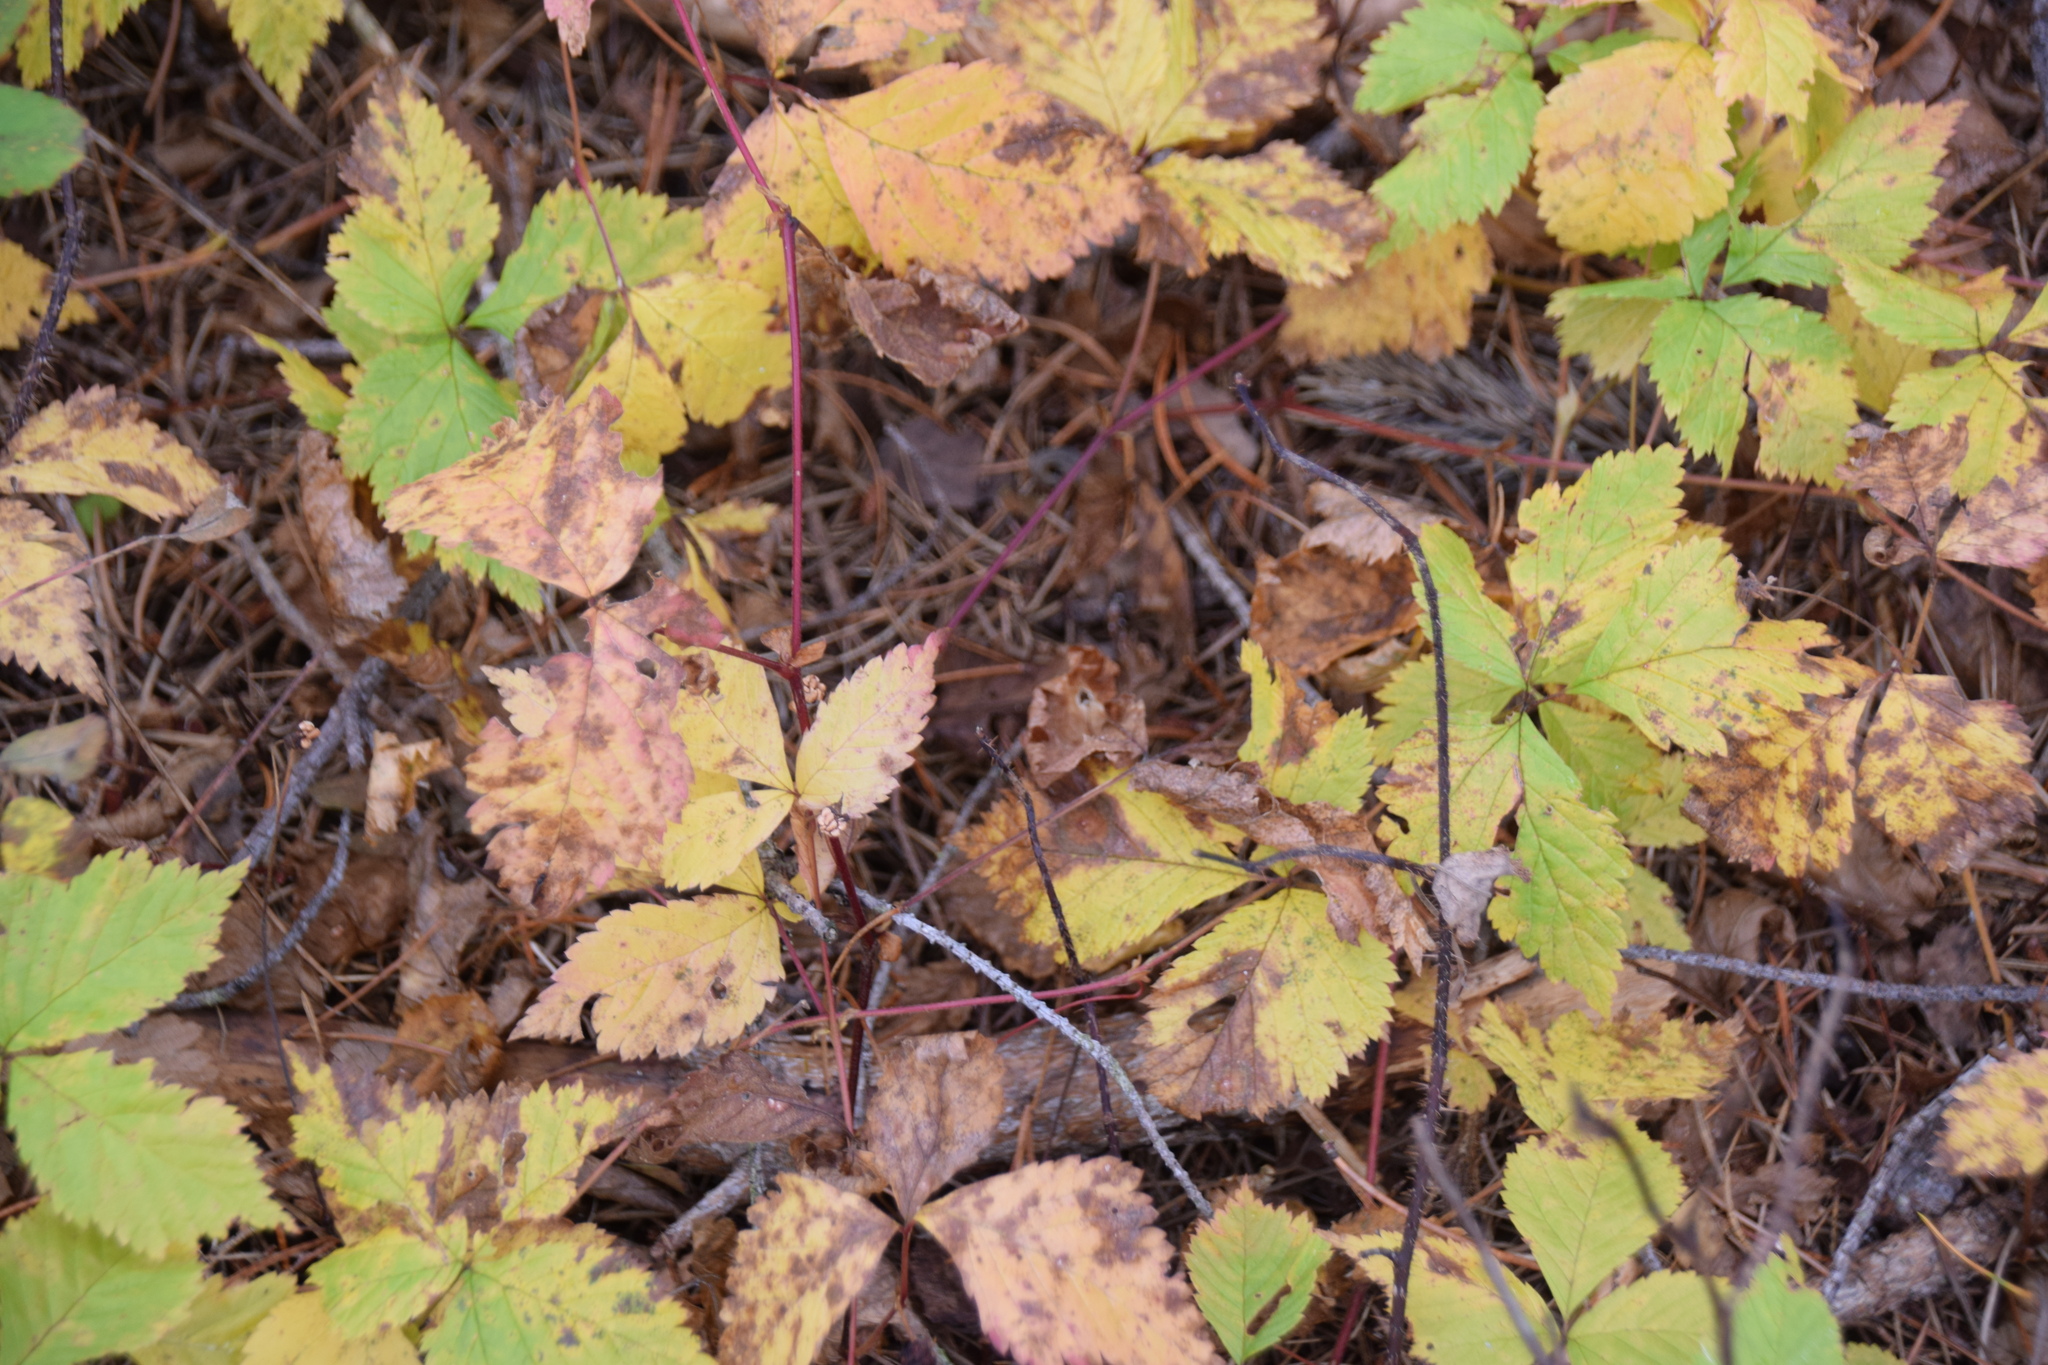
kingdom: Plantae
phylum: Tracheophyta
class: Magnoliopsida
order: Rosales
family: Rosaceae
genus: Rubus
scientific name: Rubus pubescens
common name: Dwarf raspberry
